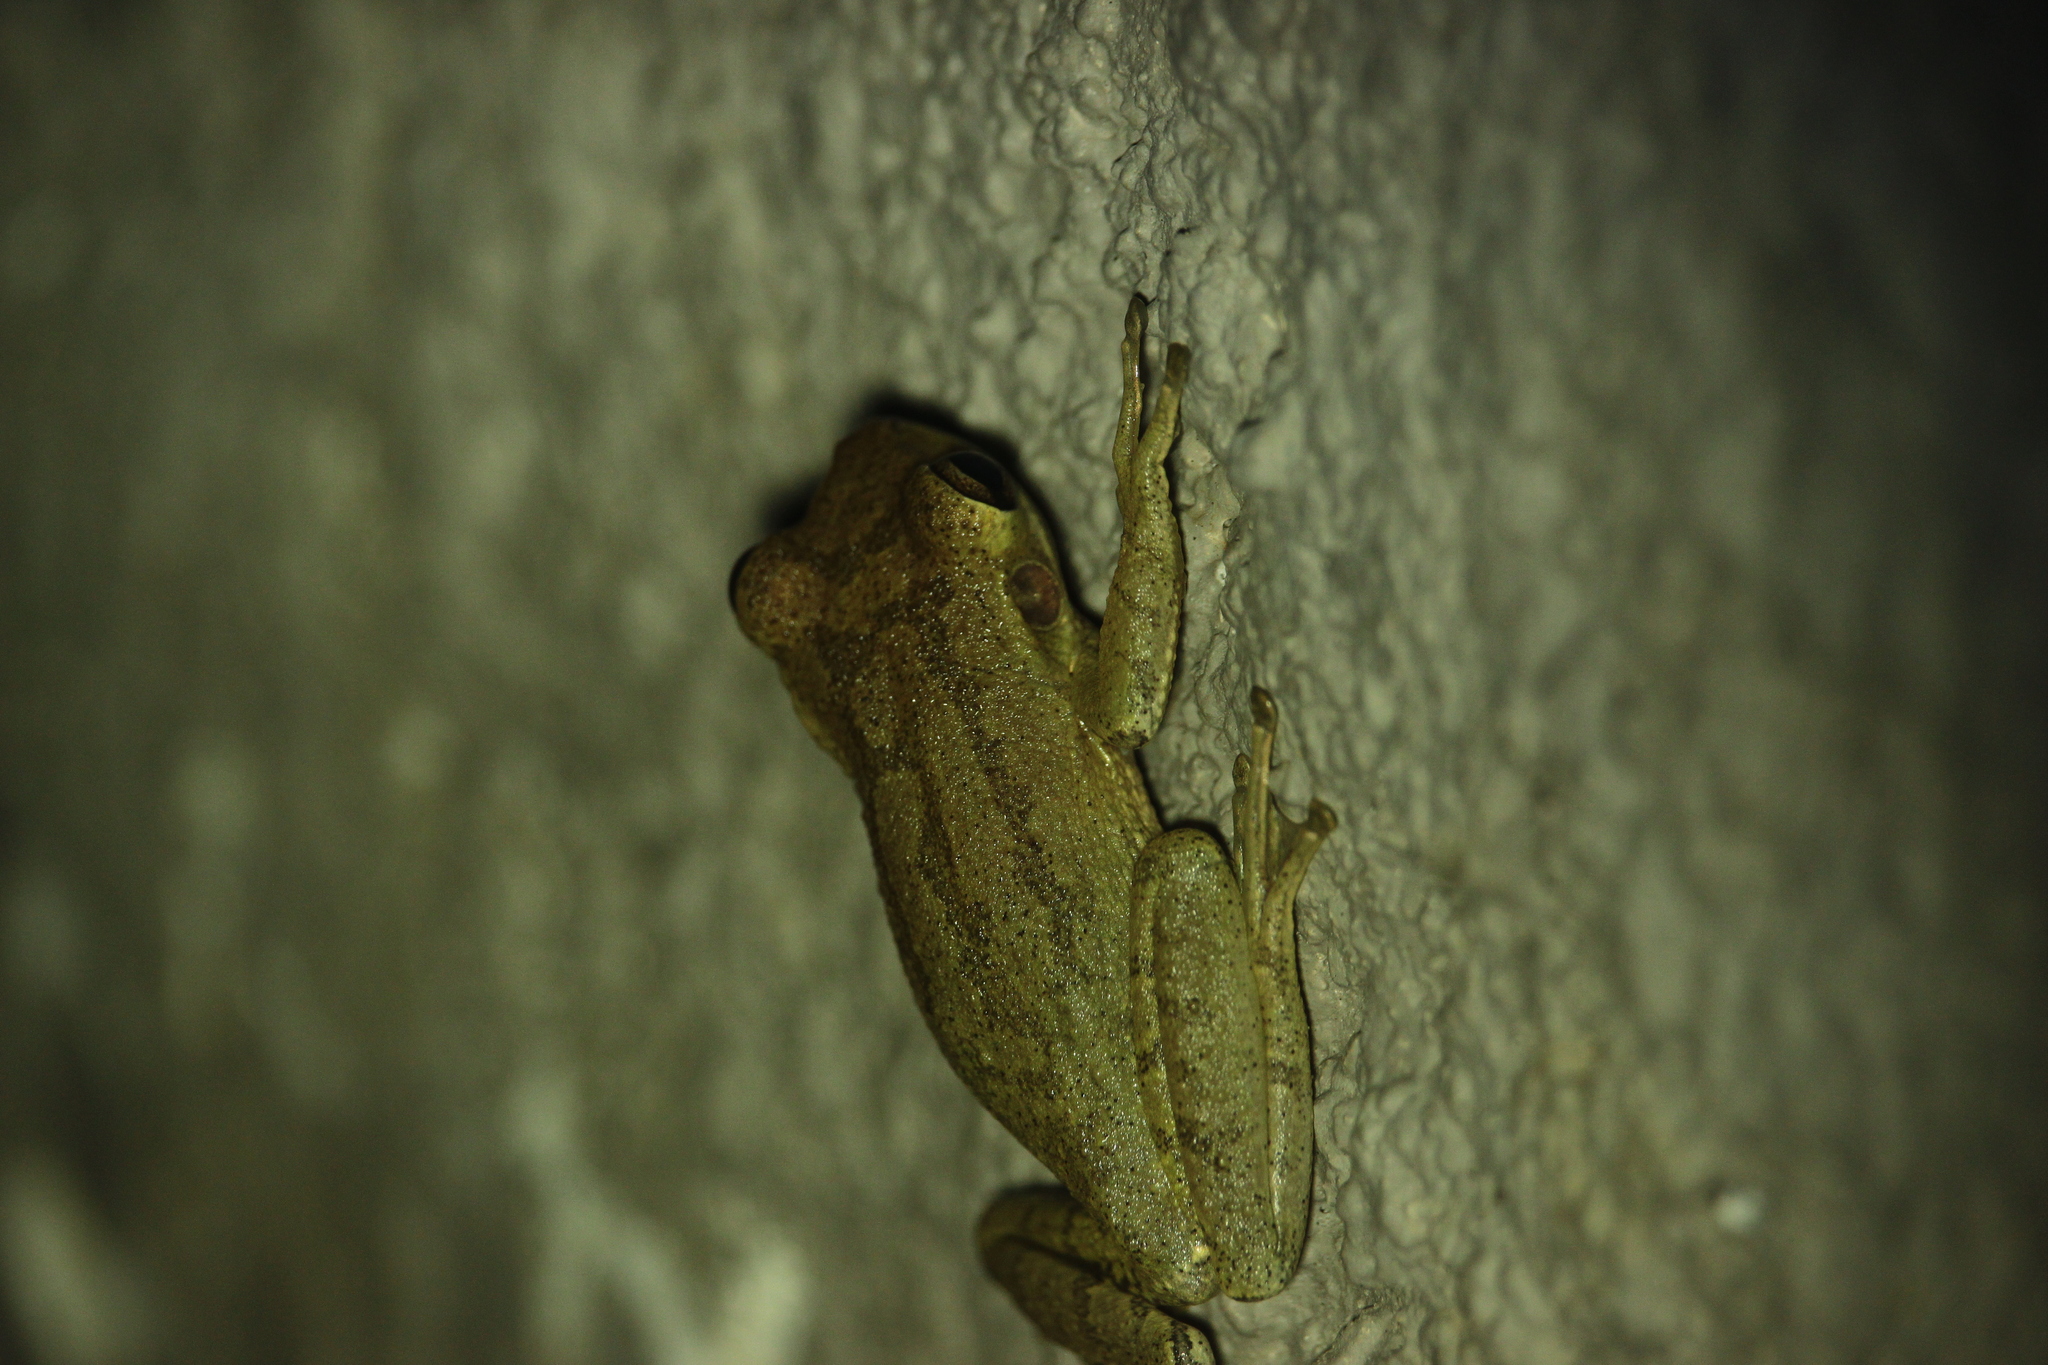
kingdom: Animalia
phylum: Chordata
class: Amphibia
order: Anura
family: Hylidae
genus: Osteopilus
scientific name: Osteopilus septentrionalis
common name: Cuban treefrog
